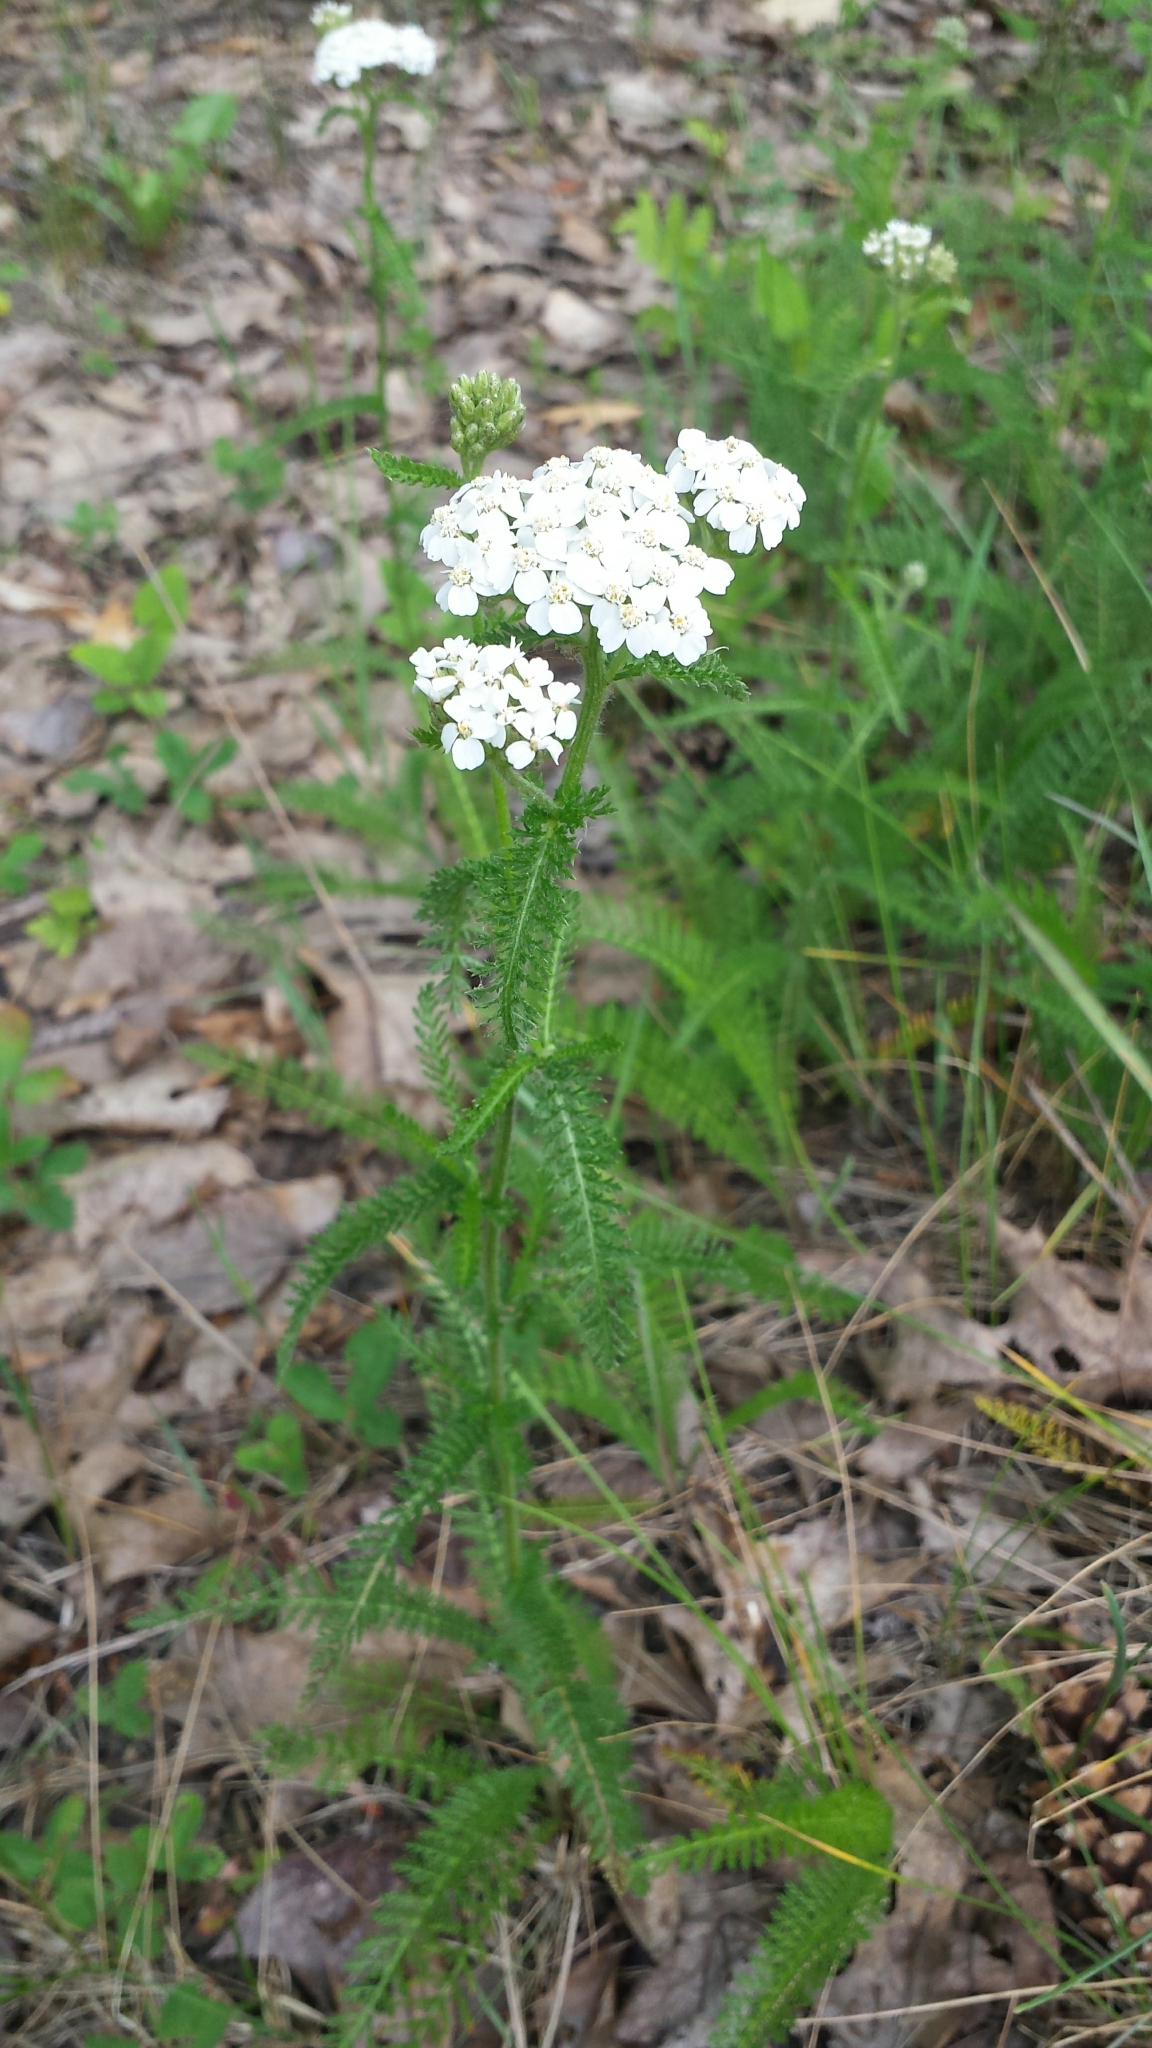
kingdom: Plantae
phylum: Tracheophyta
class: Magnoliopsida
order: Asterales
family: Asteraceae
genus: Achillea
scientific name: Achillea millefolium
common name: Yarrow
